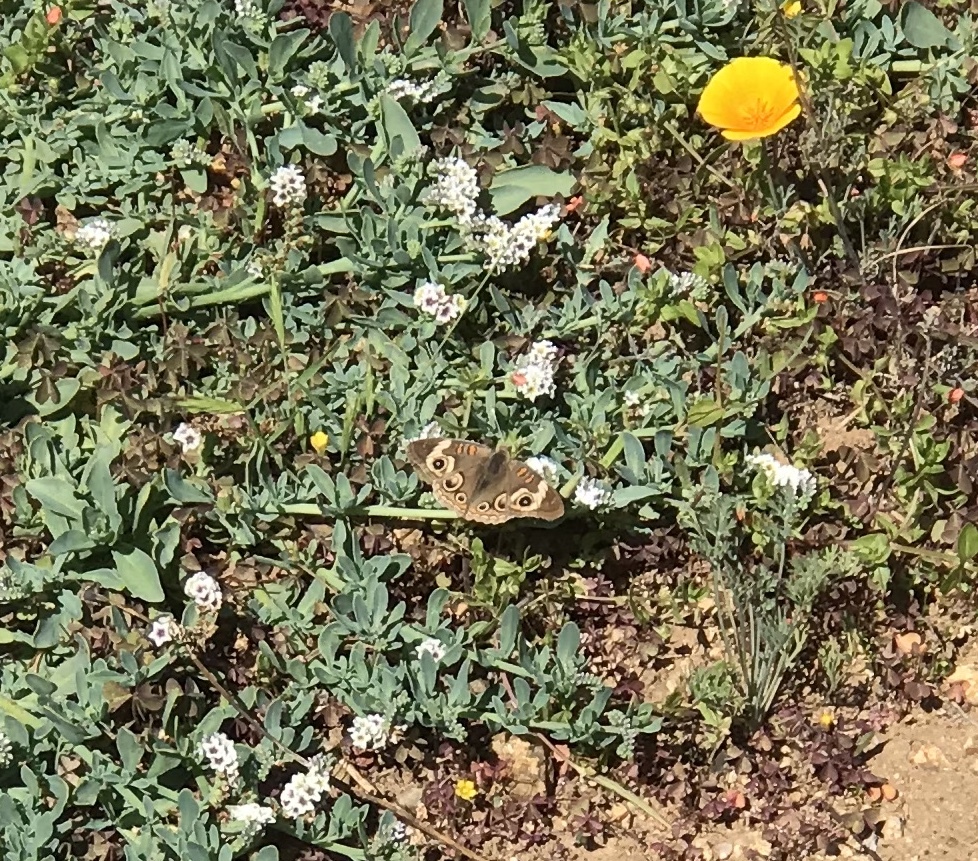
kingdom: Animalia
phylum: Arthropoda
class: Insecta
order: Lepidoptera
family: Nymphalidae
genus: Junonia
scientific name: Junonia grisea
